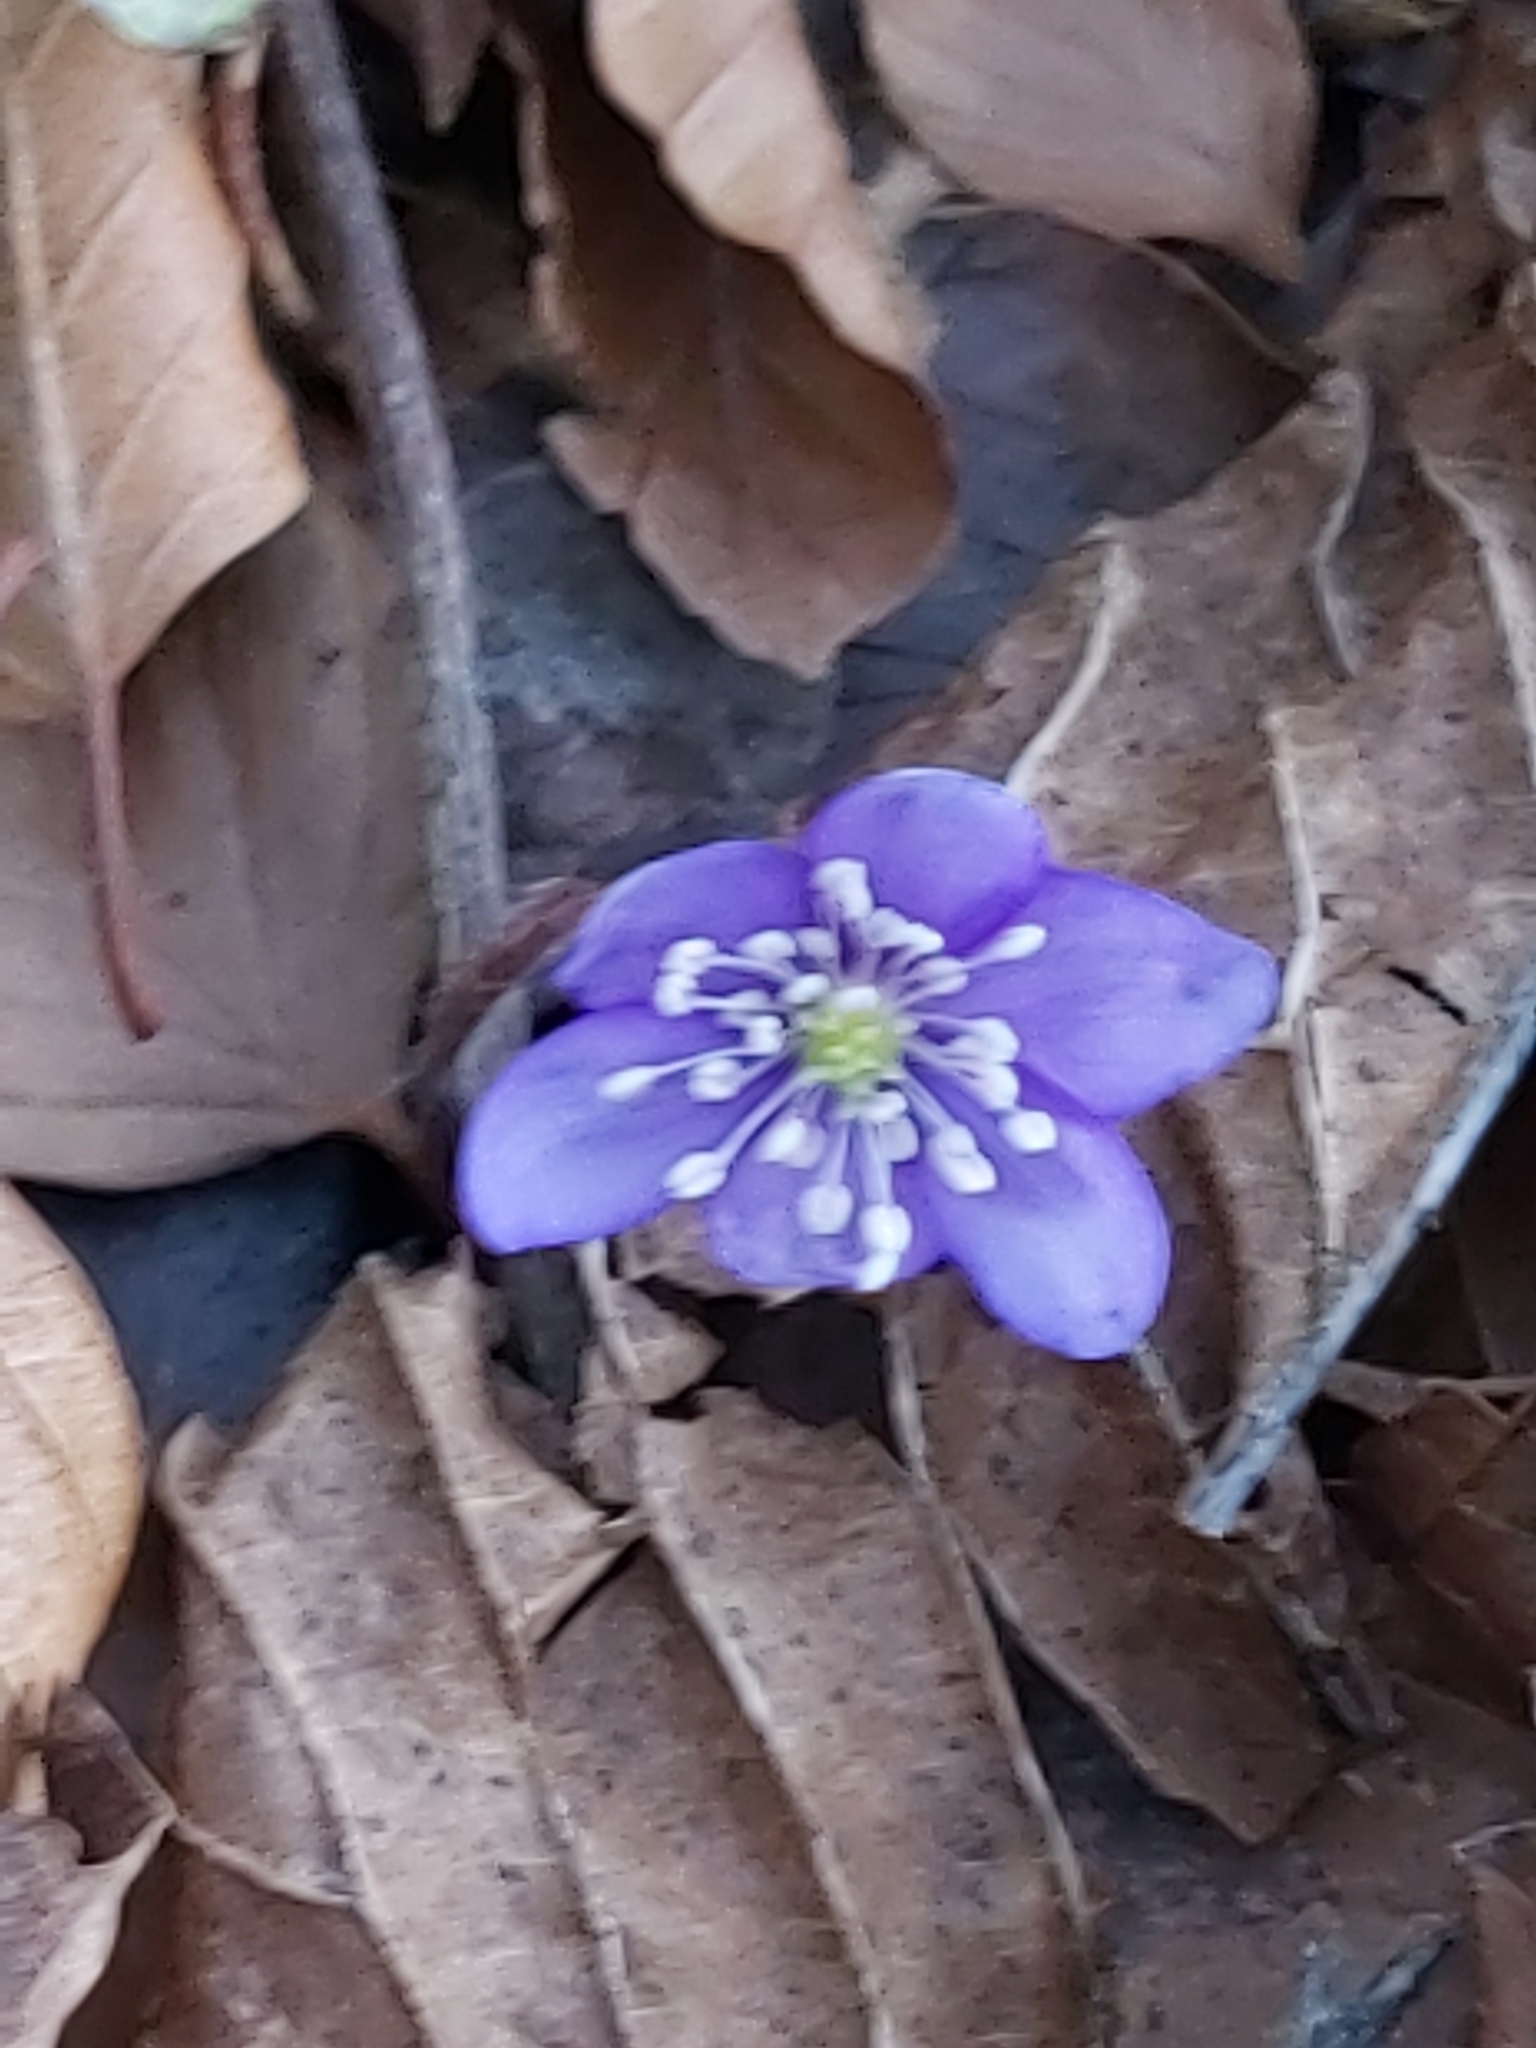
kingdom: Plantae
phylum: Tracheophyta
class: Magnoliopsida
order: Ranunculales
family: Ranunculaceae
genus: Hepatica
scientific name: Hepatica nobilis
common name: Liverleaf
